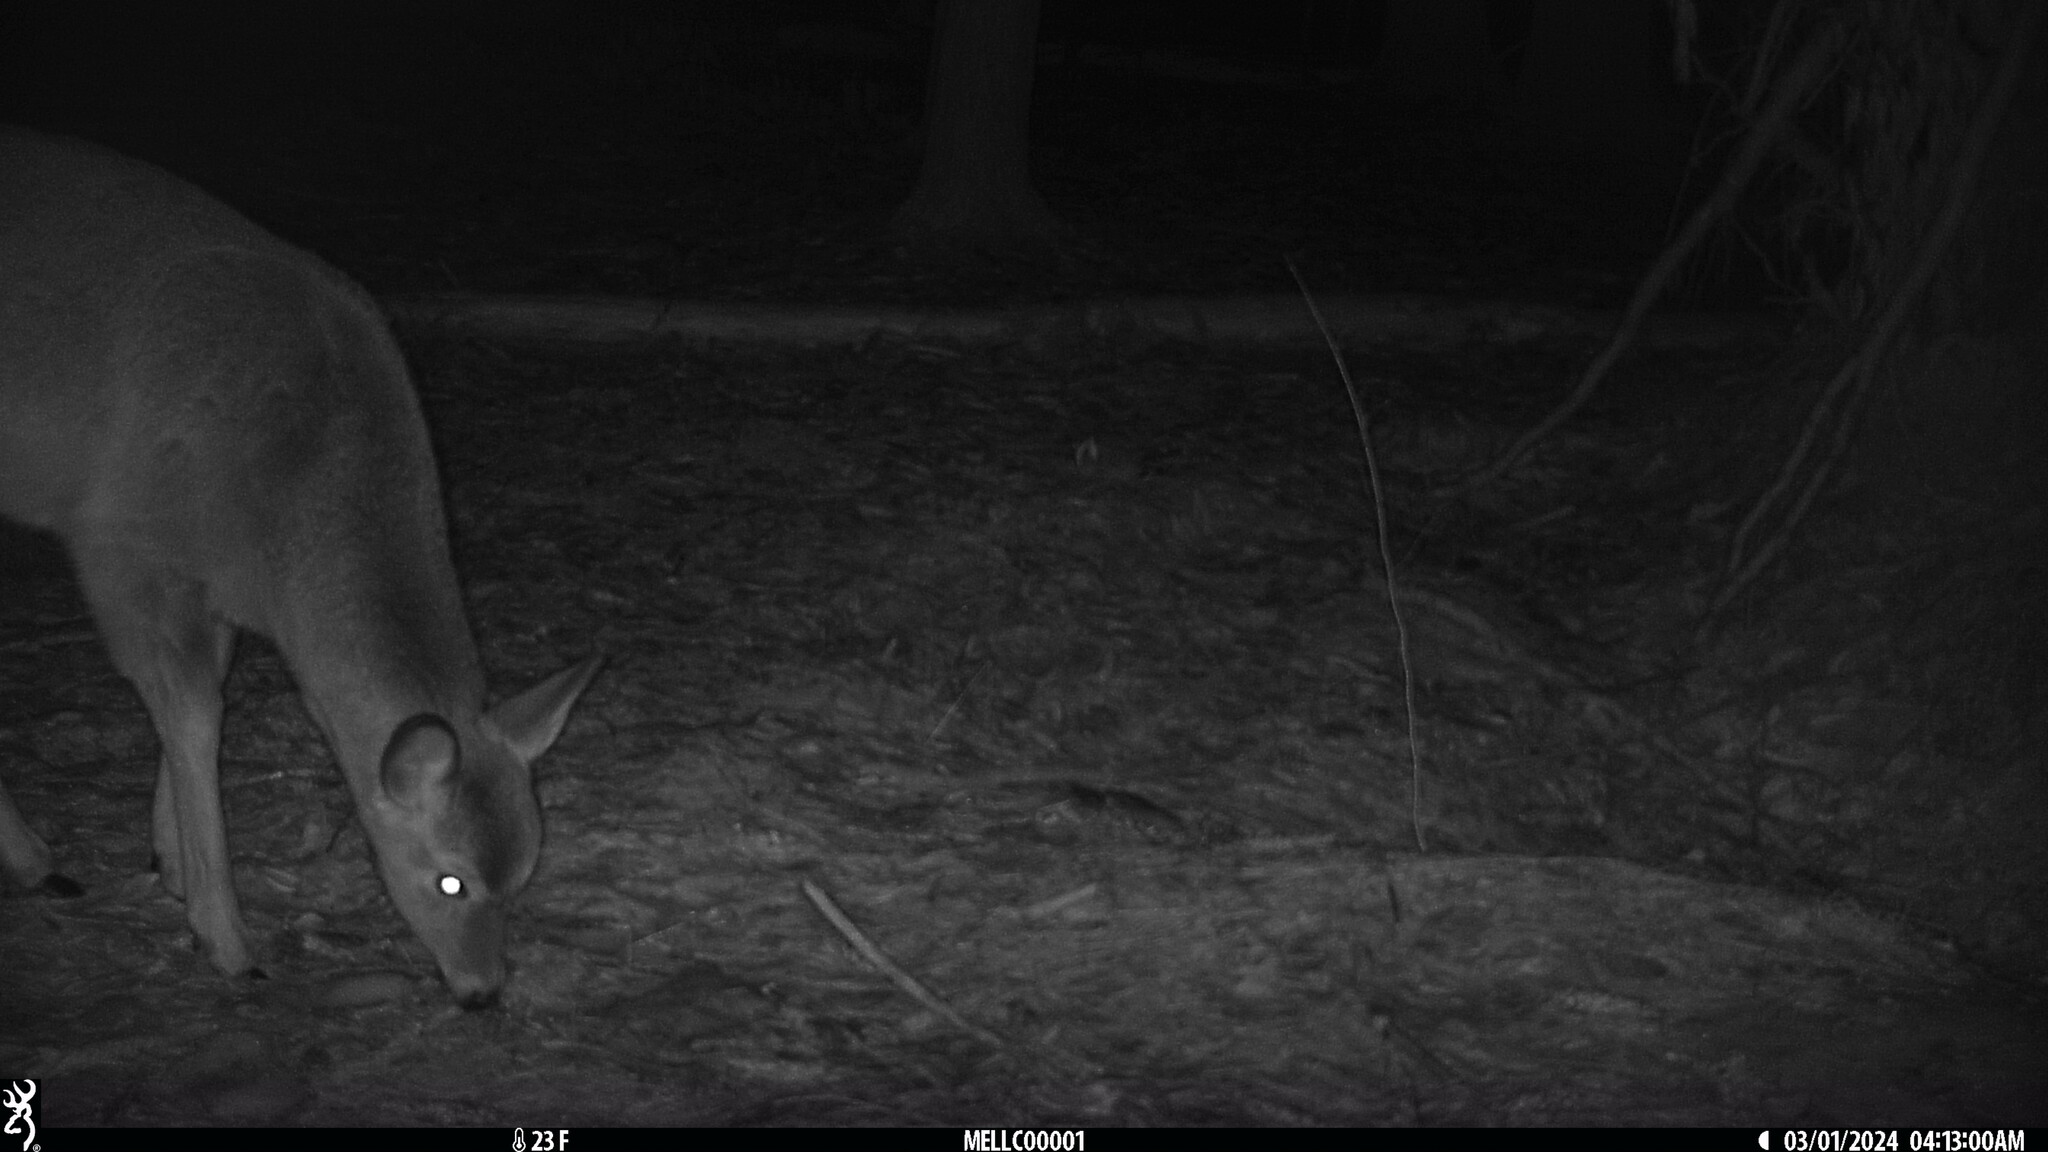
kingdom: Animalia
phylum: Chordata
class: Mammalia
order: Artiodactyla
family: Cervidae
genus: Odocoileus
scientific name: Odocoileus virginianus
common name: White-tailed deer
